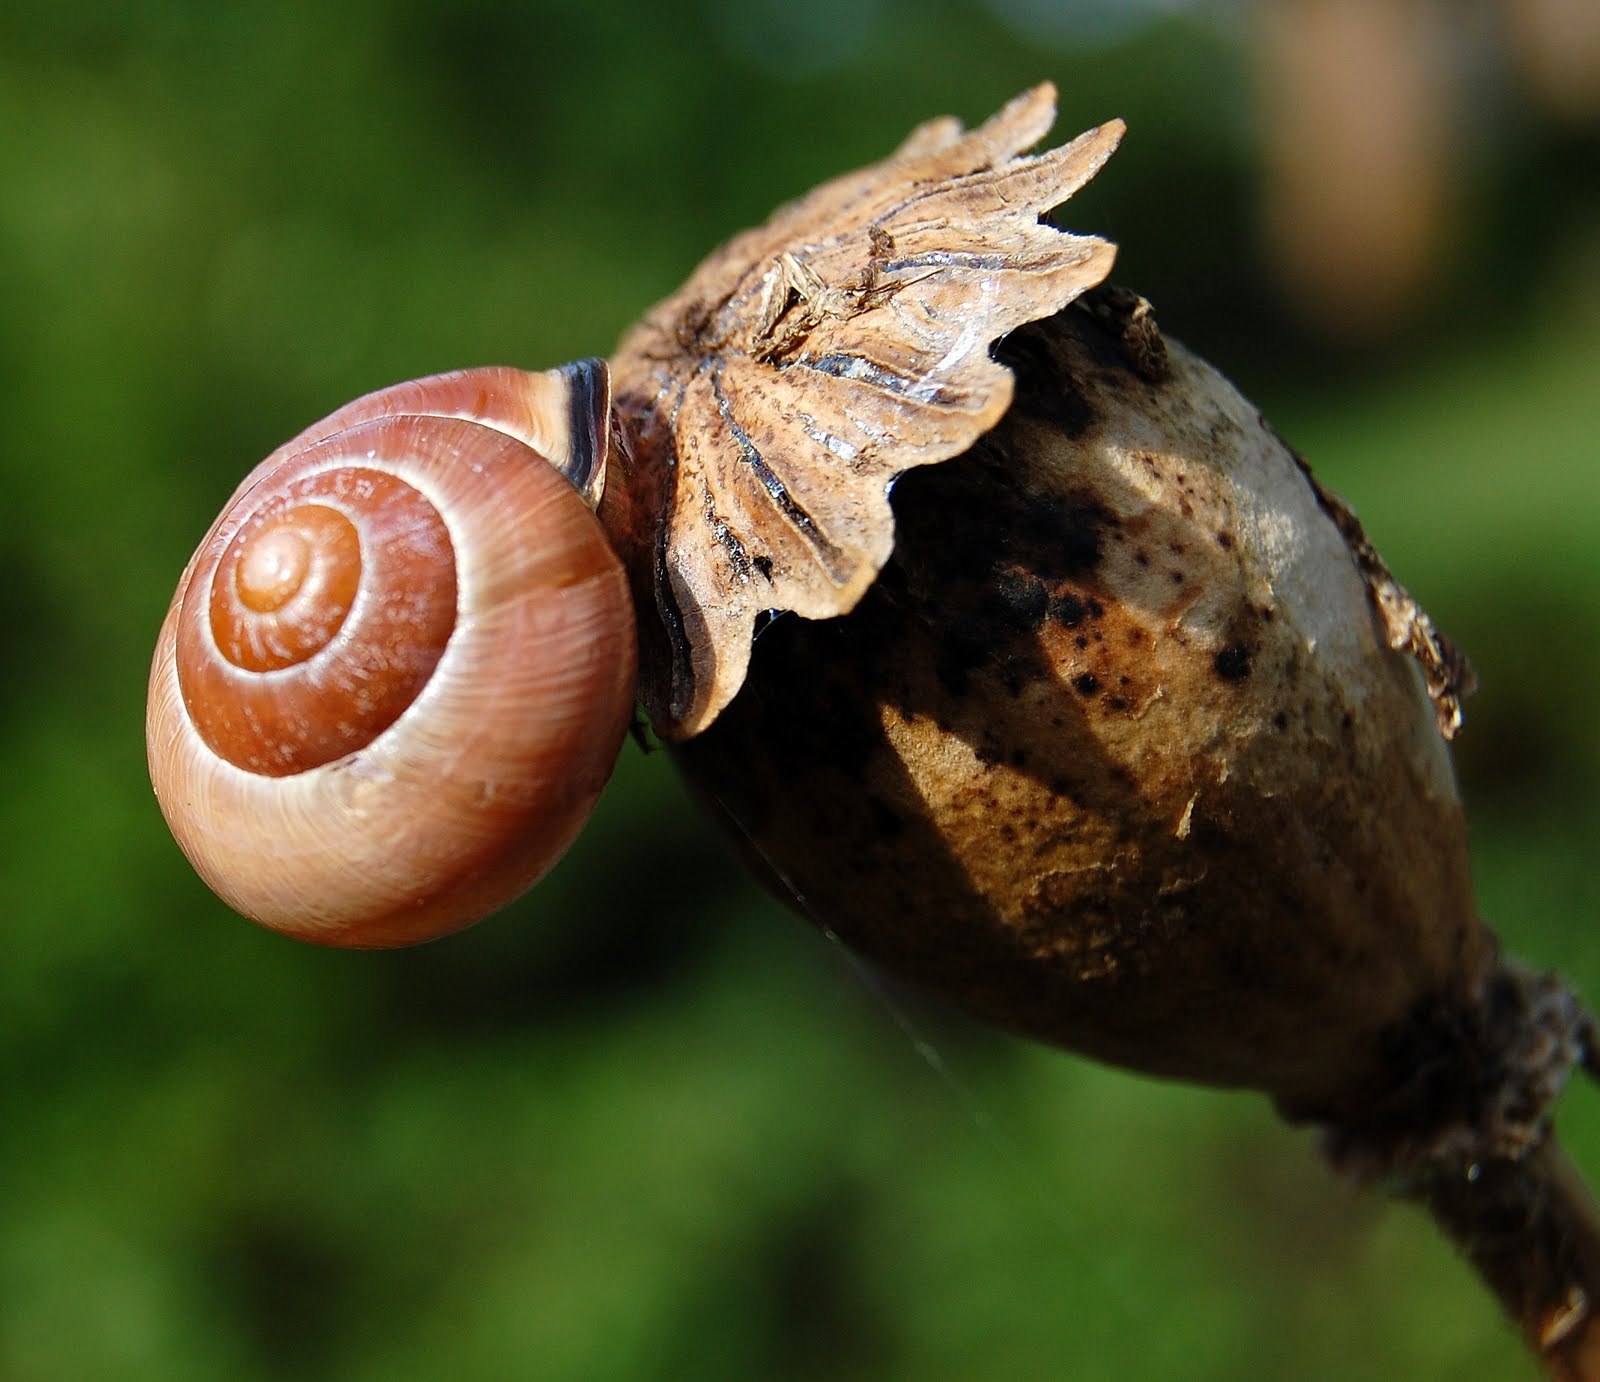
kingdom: Animalia
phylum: Mollusca
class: Gastropoda
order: Stylommatophora
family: Helicidae
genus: Cepaea
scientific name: Cepaea nemoralis
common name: Grovesnail
